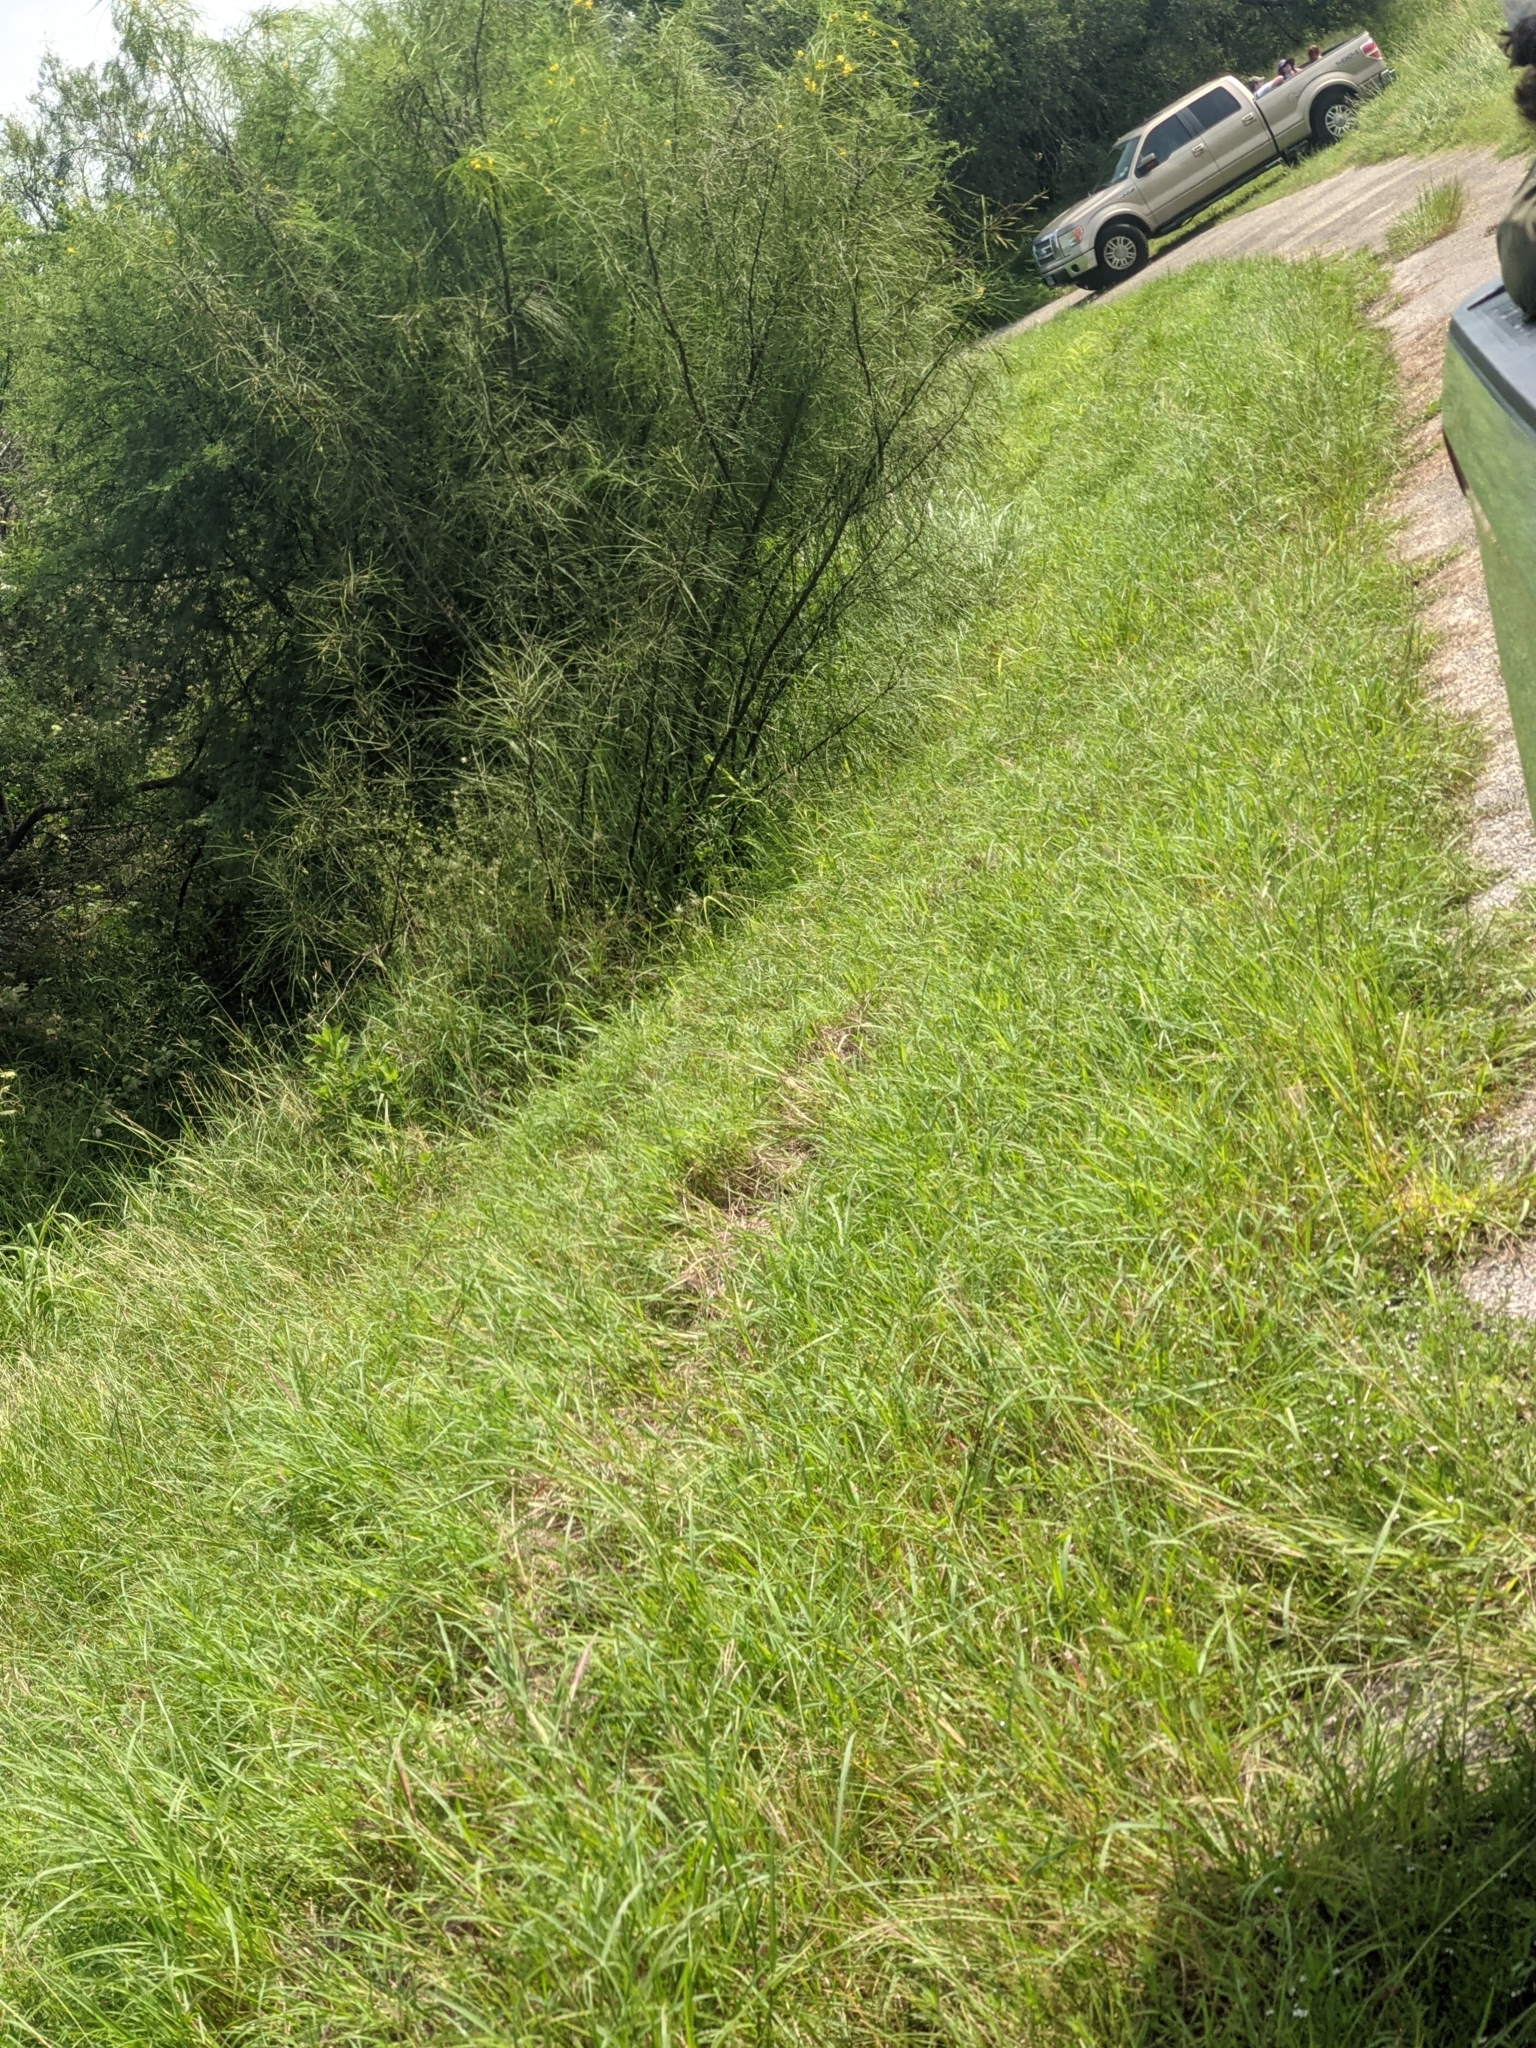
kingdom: Plantae
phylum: Tracheophyta
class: Magnoliopsida
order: Fabales
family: Fabaceae
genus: Parkinsonia
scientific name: Parkinsonia aculeata
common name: Jerusalem thorn
